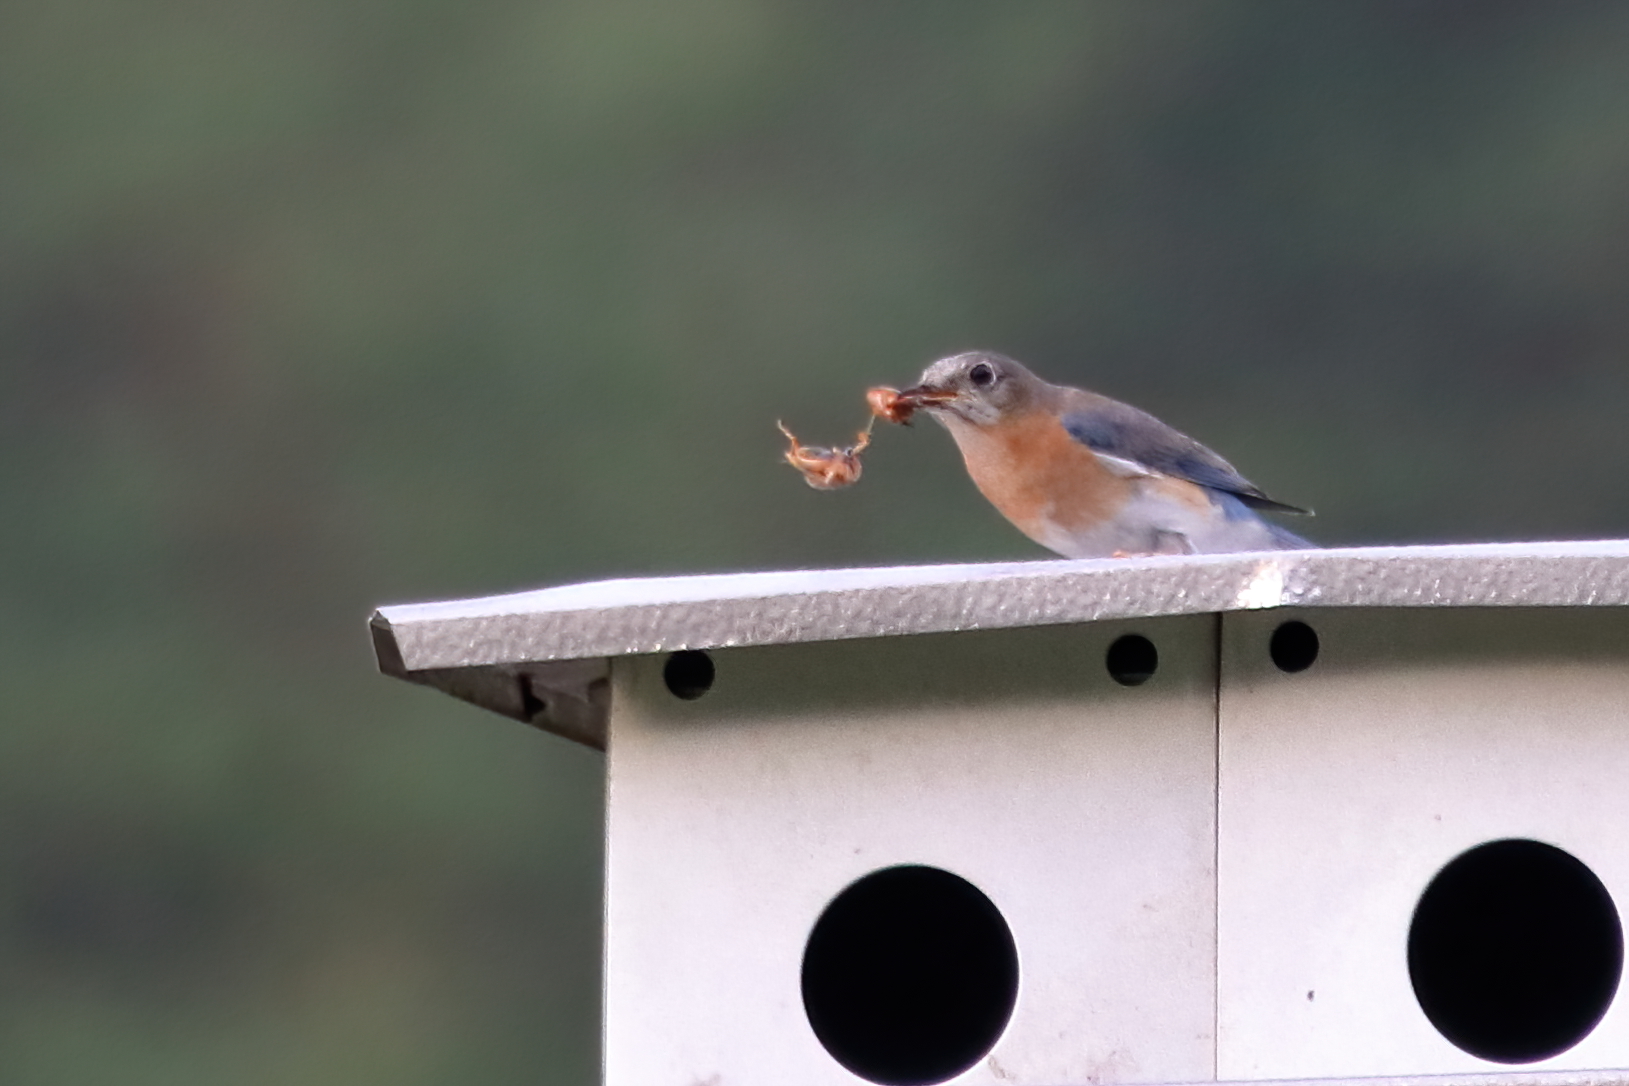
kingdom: Animalia
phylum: Chordata
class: Aves
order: Passeriformes
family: Turdidae
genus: Sialia
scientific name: Sialia sialis
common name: Eastern bluebird
